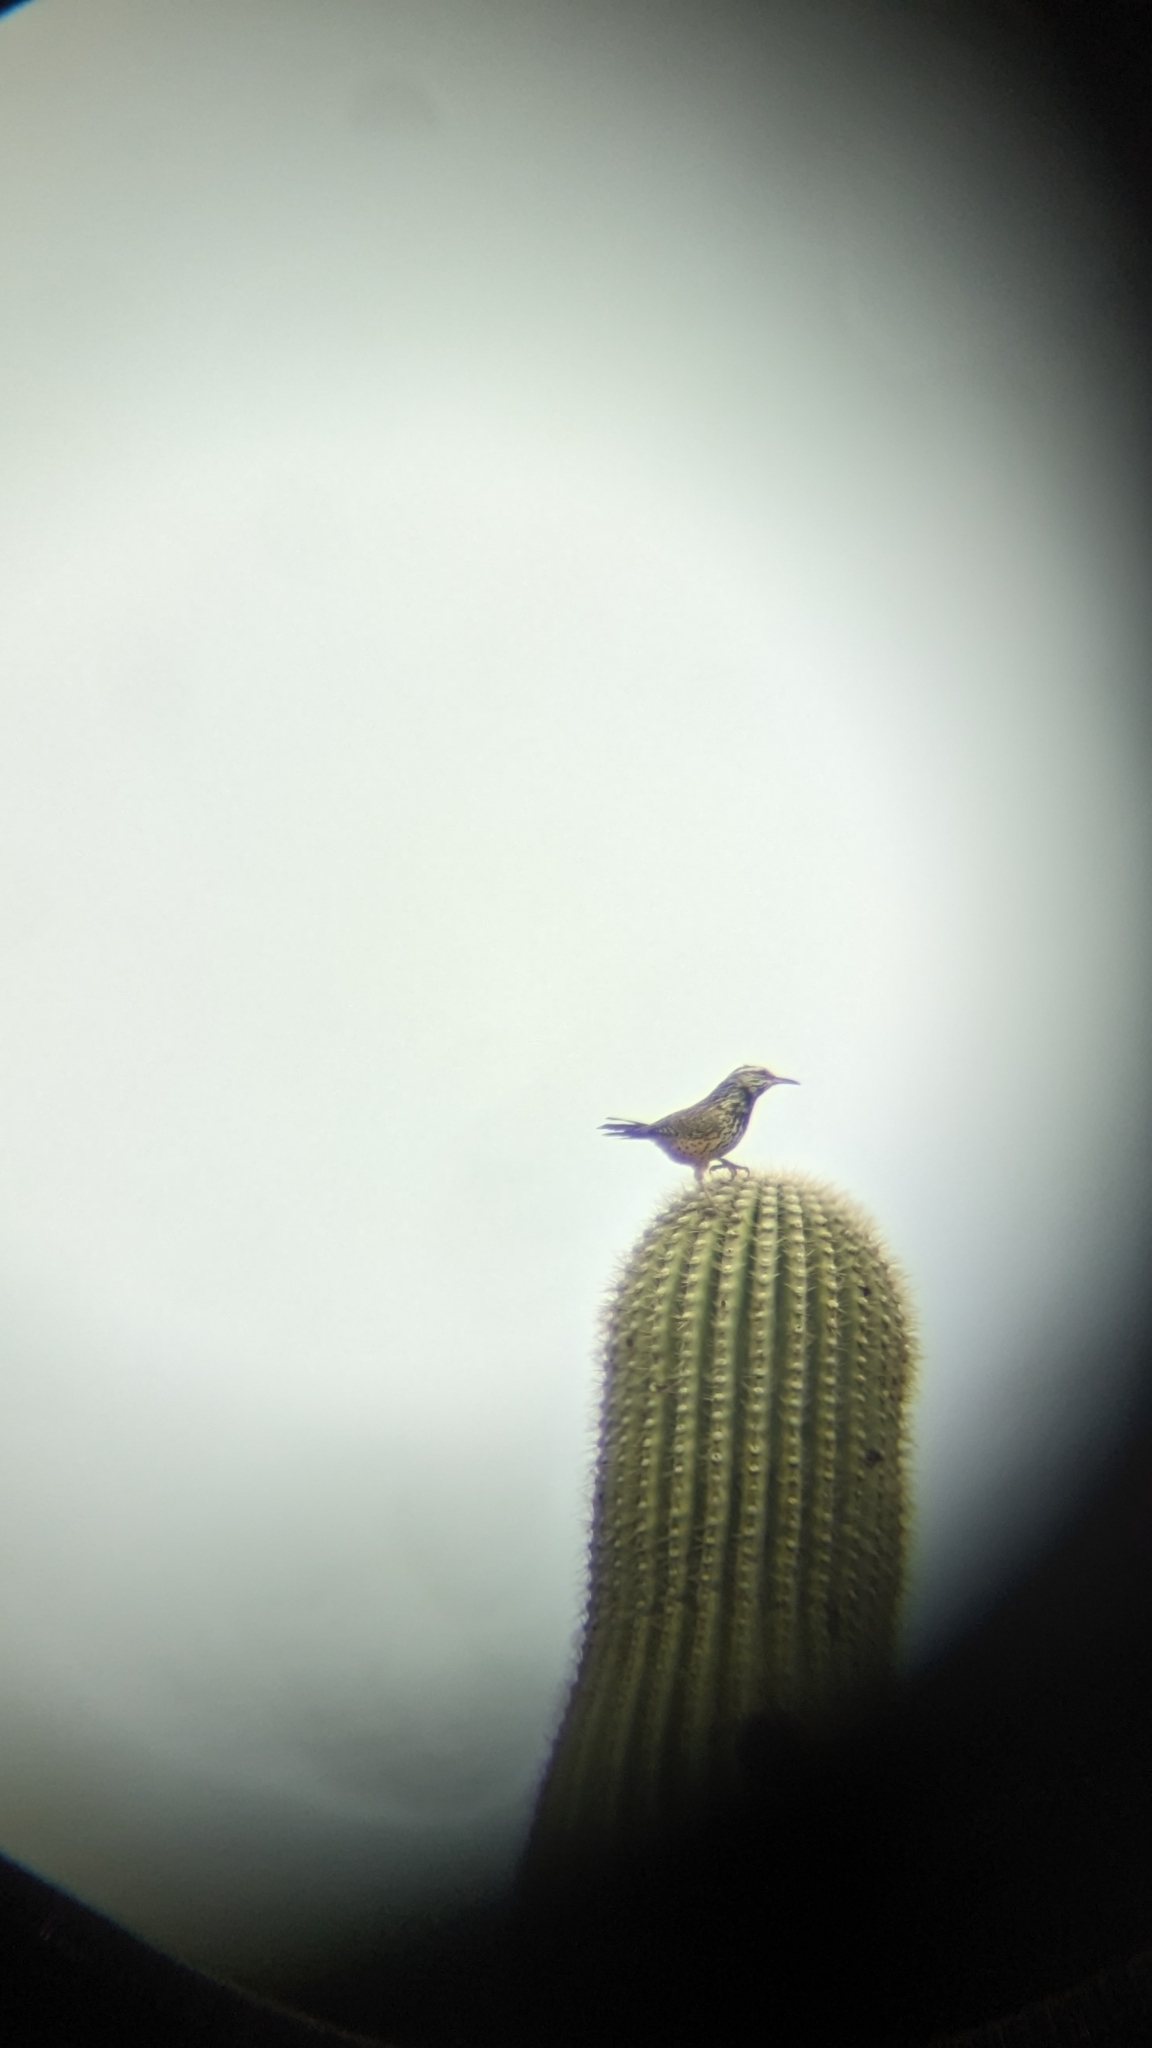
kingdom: Animalia
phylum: Chordata
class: Aves
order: Passeriformes
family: Troglodytidae
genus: Campylorhynchus
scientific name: Campylorhynchus brunneicapillus
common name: Cactus wren
